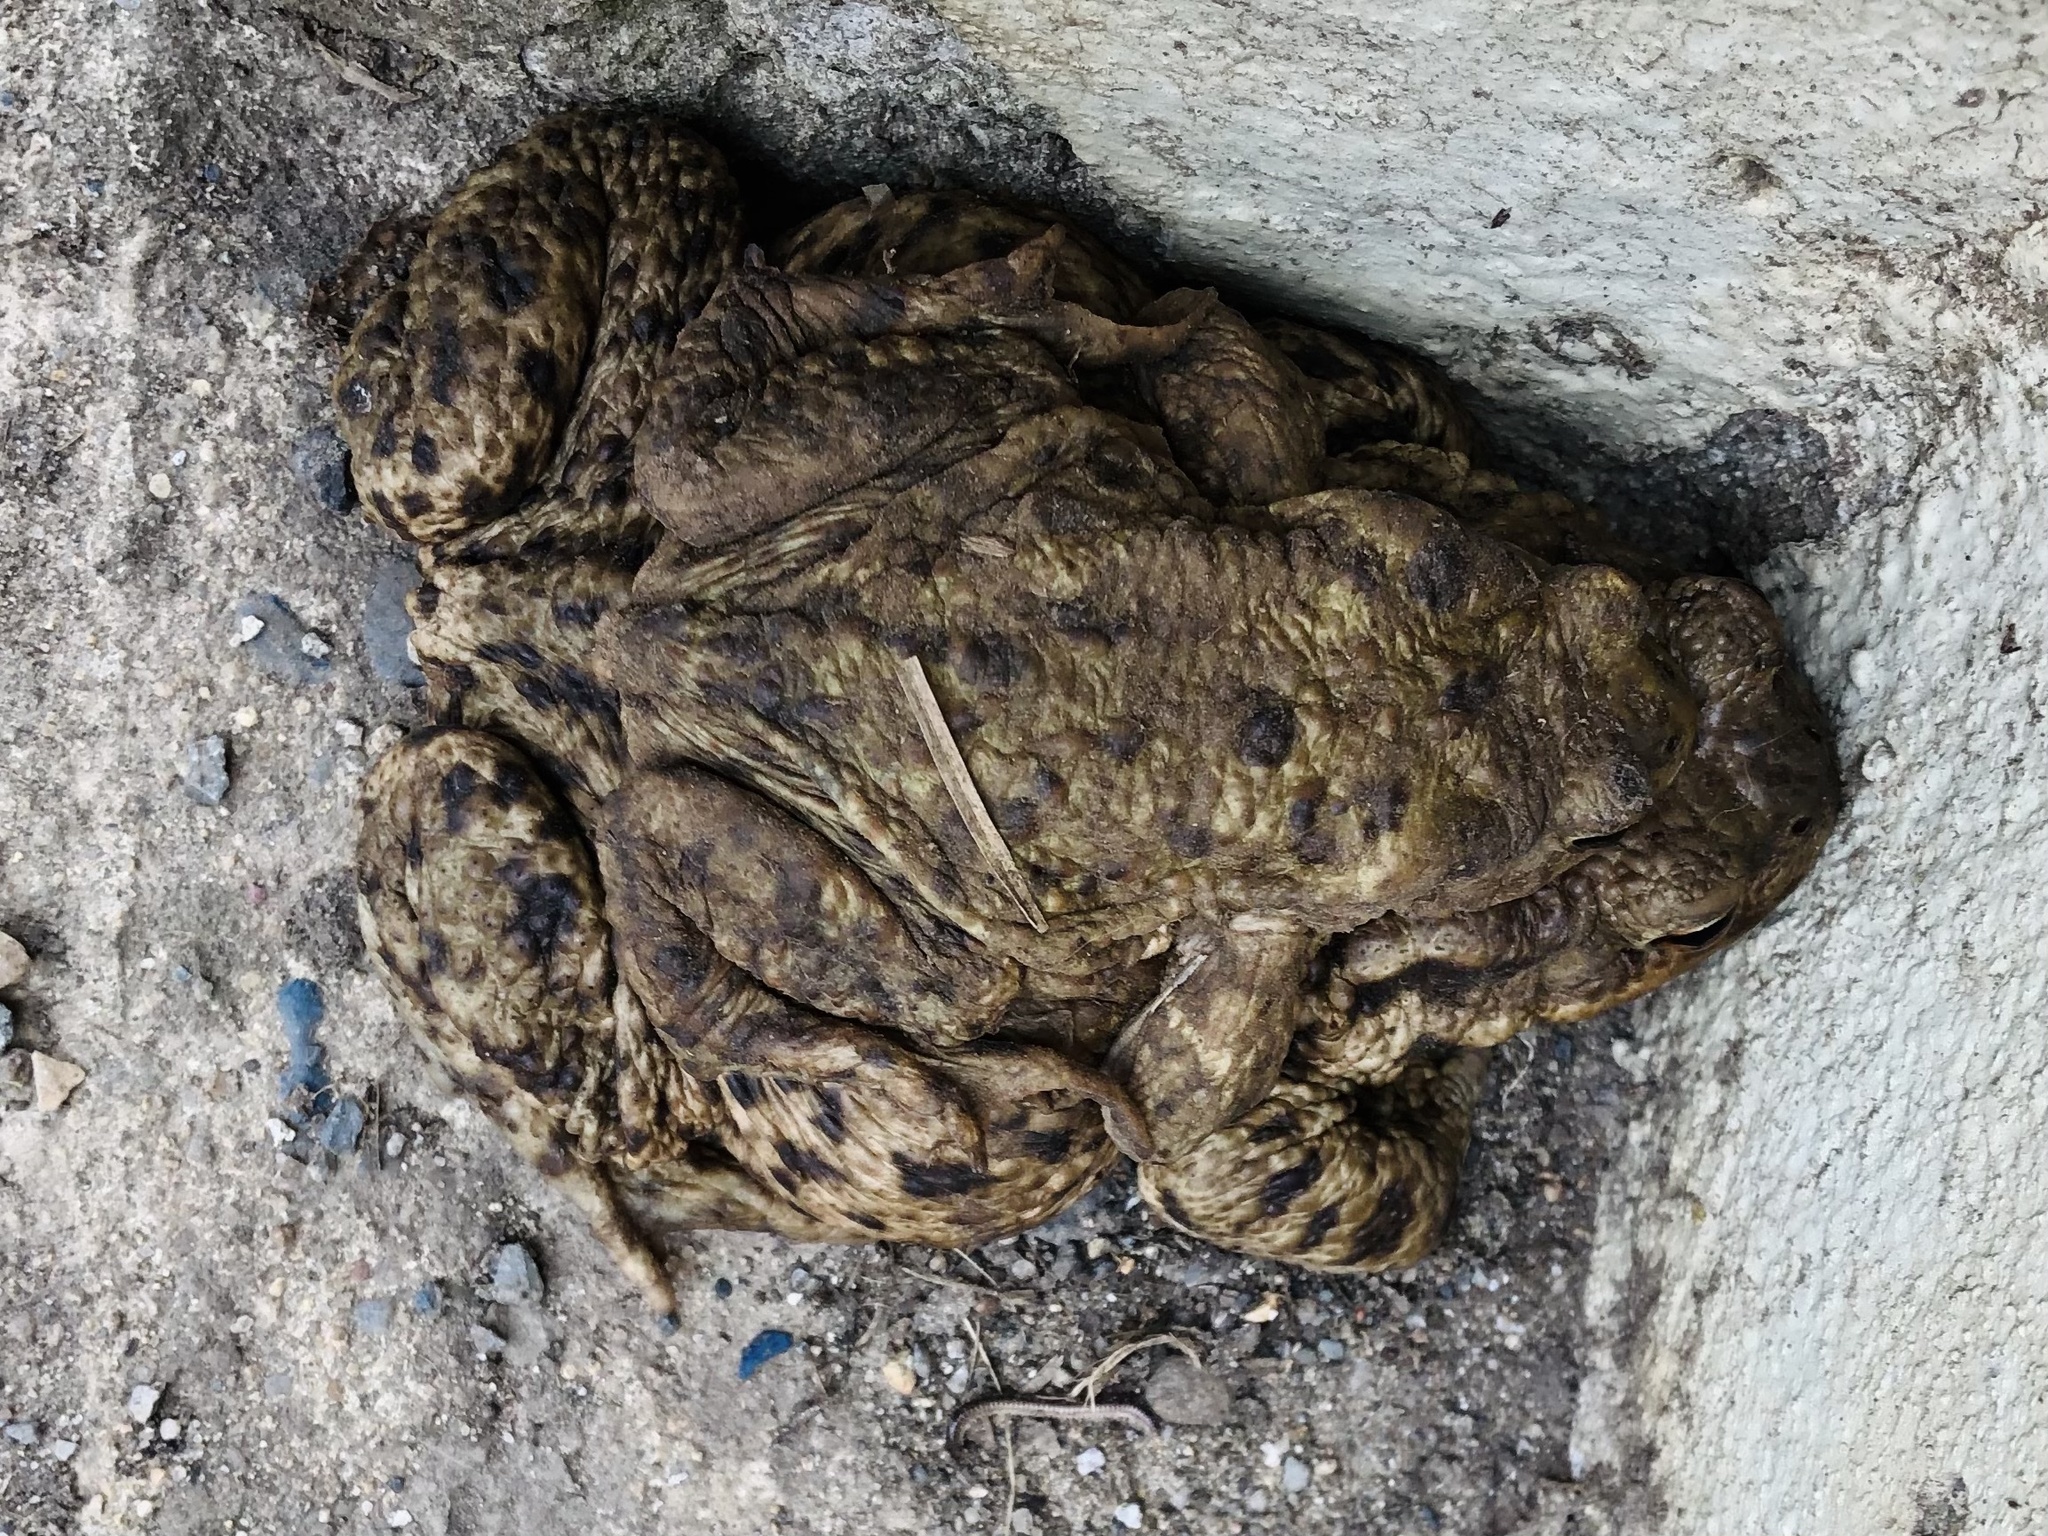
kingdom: Animalia
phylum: Chordata
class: Amphibia
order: Anura
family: Bufonidae
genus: Bufo
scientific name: Bufo bufo
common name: Common toad
